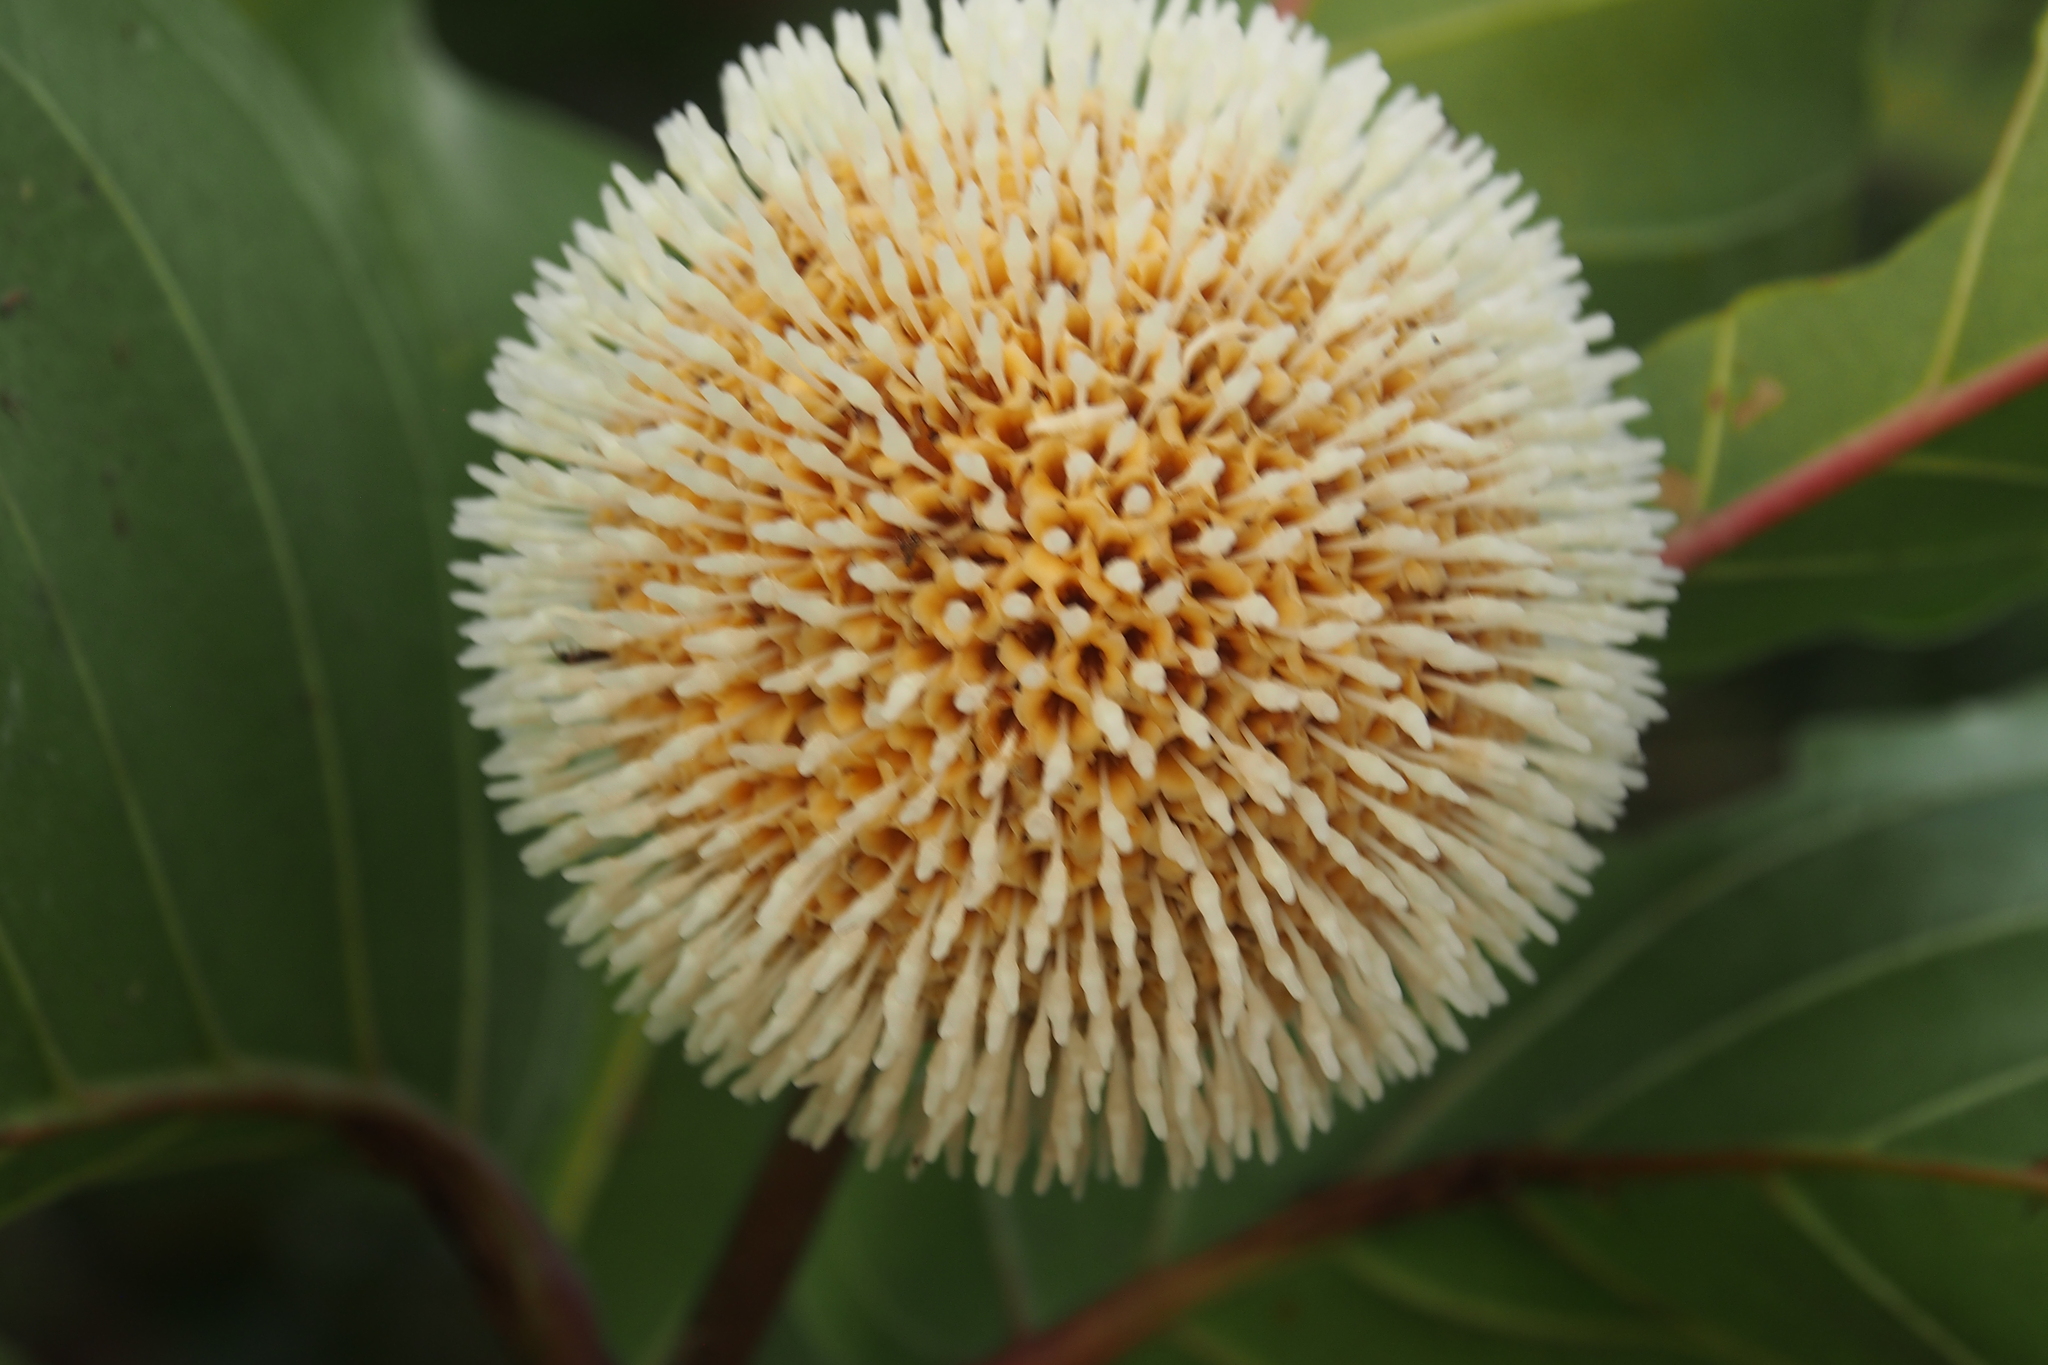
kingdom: Plantae
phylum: Tracheophyta
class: Magnoliopsida
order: Gentianales
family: Rubiaceae
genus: Nauclea
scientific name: Nauclea latifolia
